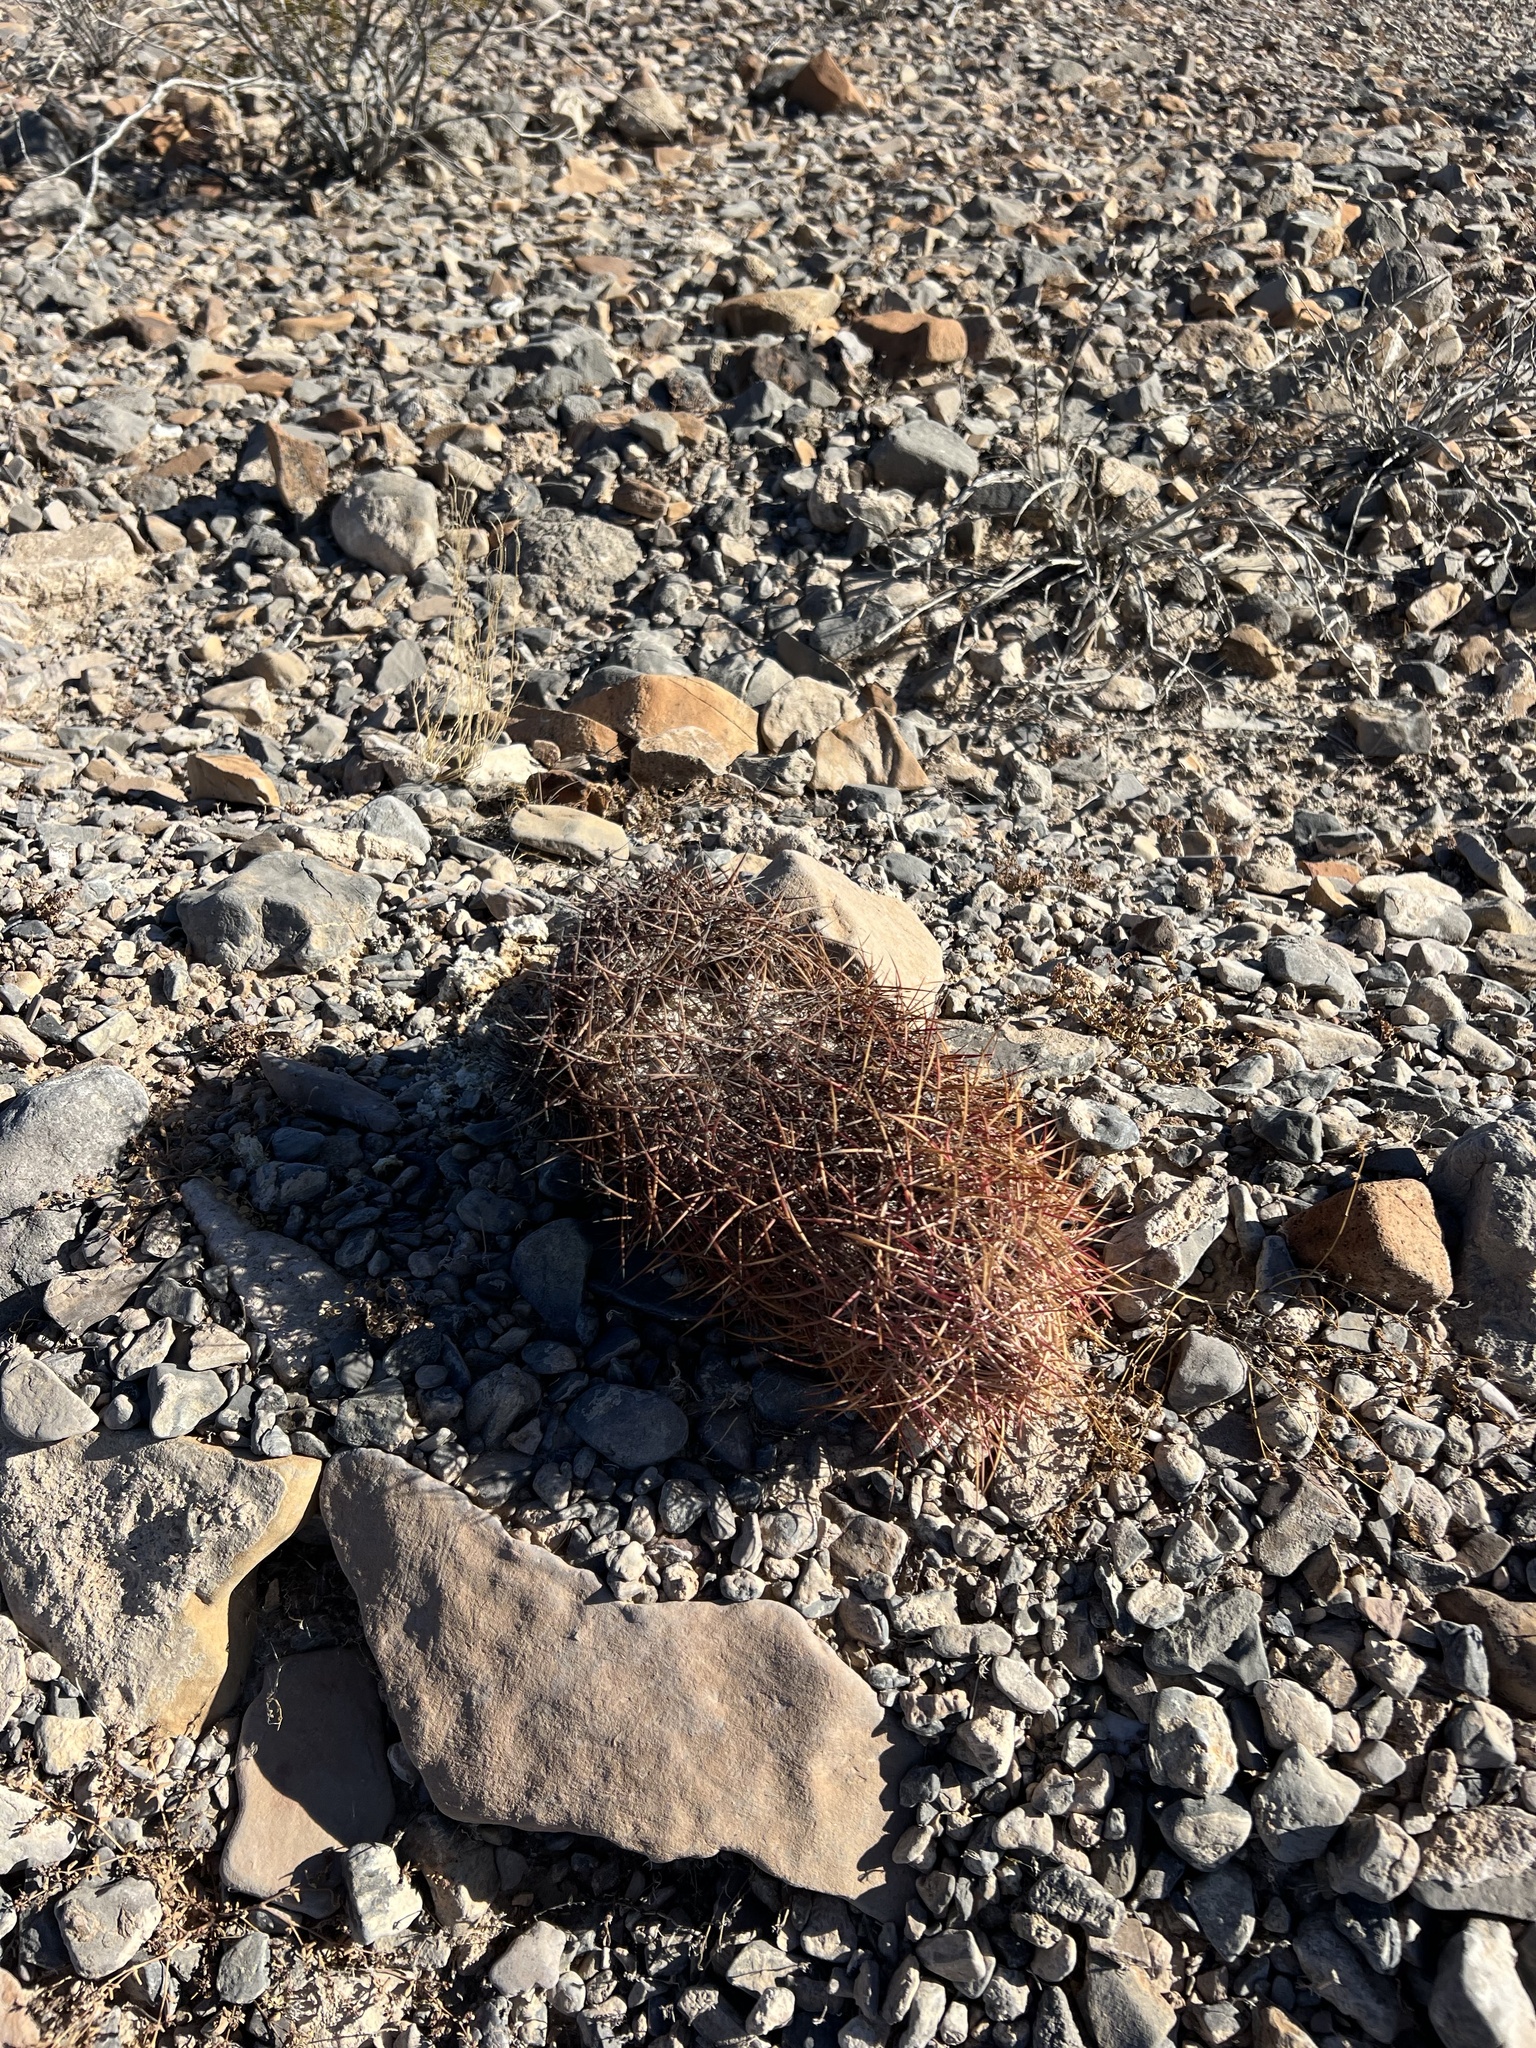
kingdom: Plantae
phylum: Tracheophyta
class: Magnoliopsida
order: Caryophyllales
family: Cactaceae
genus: Sclerocactus
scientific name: Sclerocactus johnsonii
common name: Eight-spine fishhook cactus
